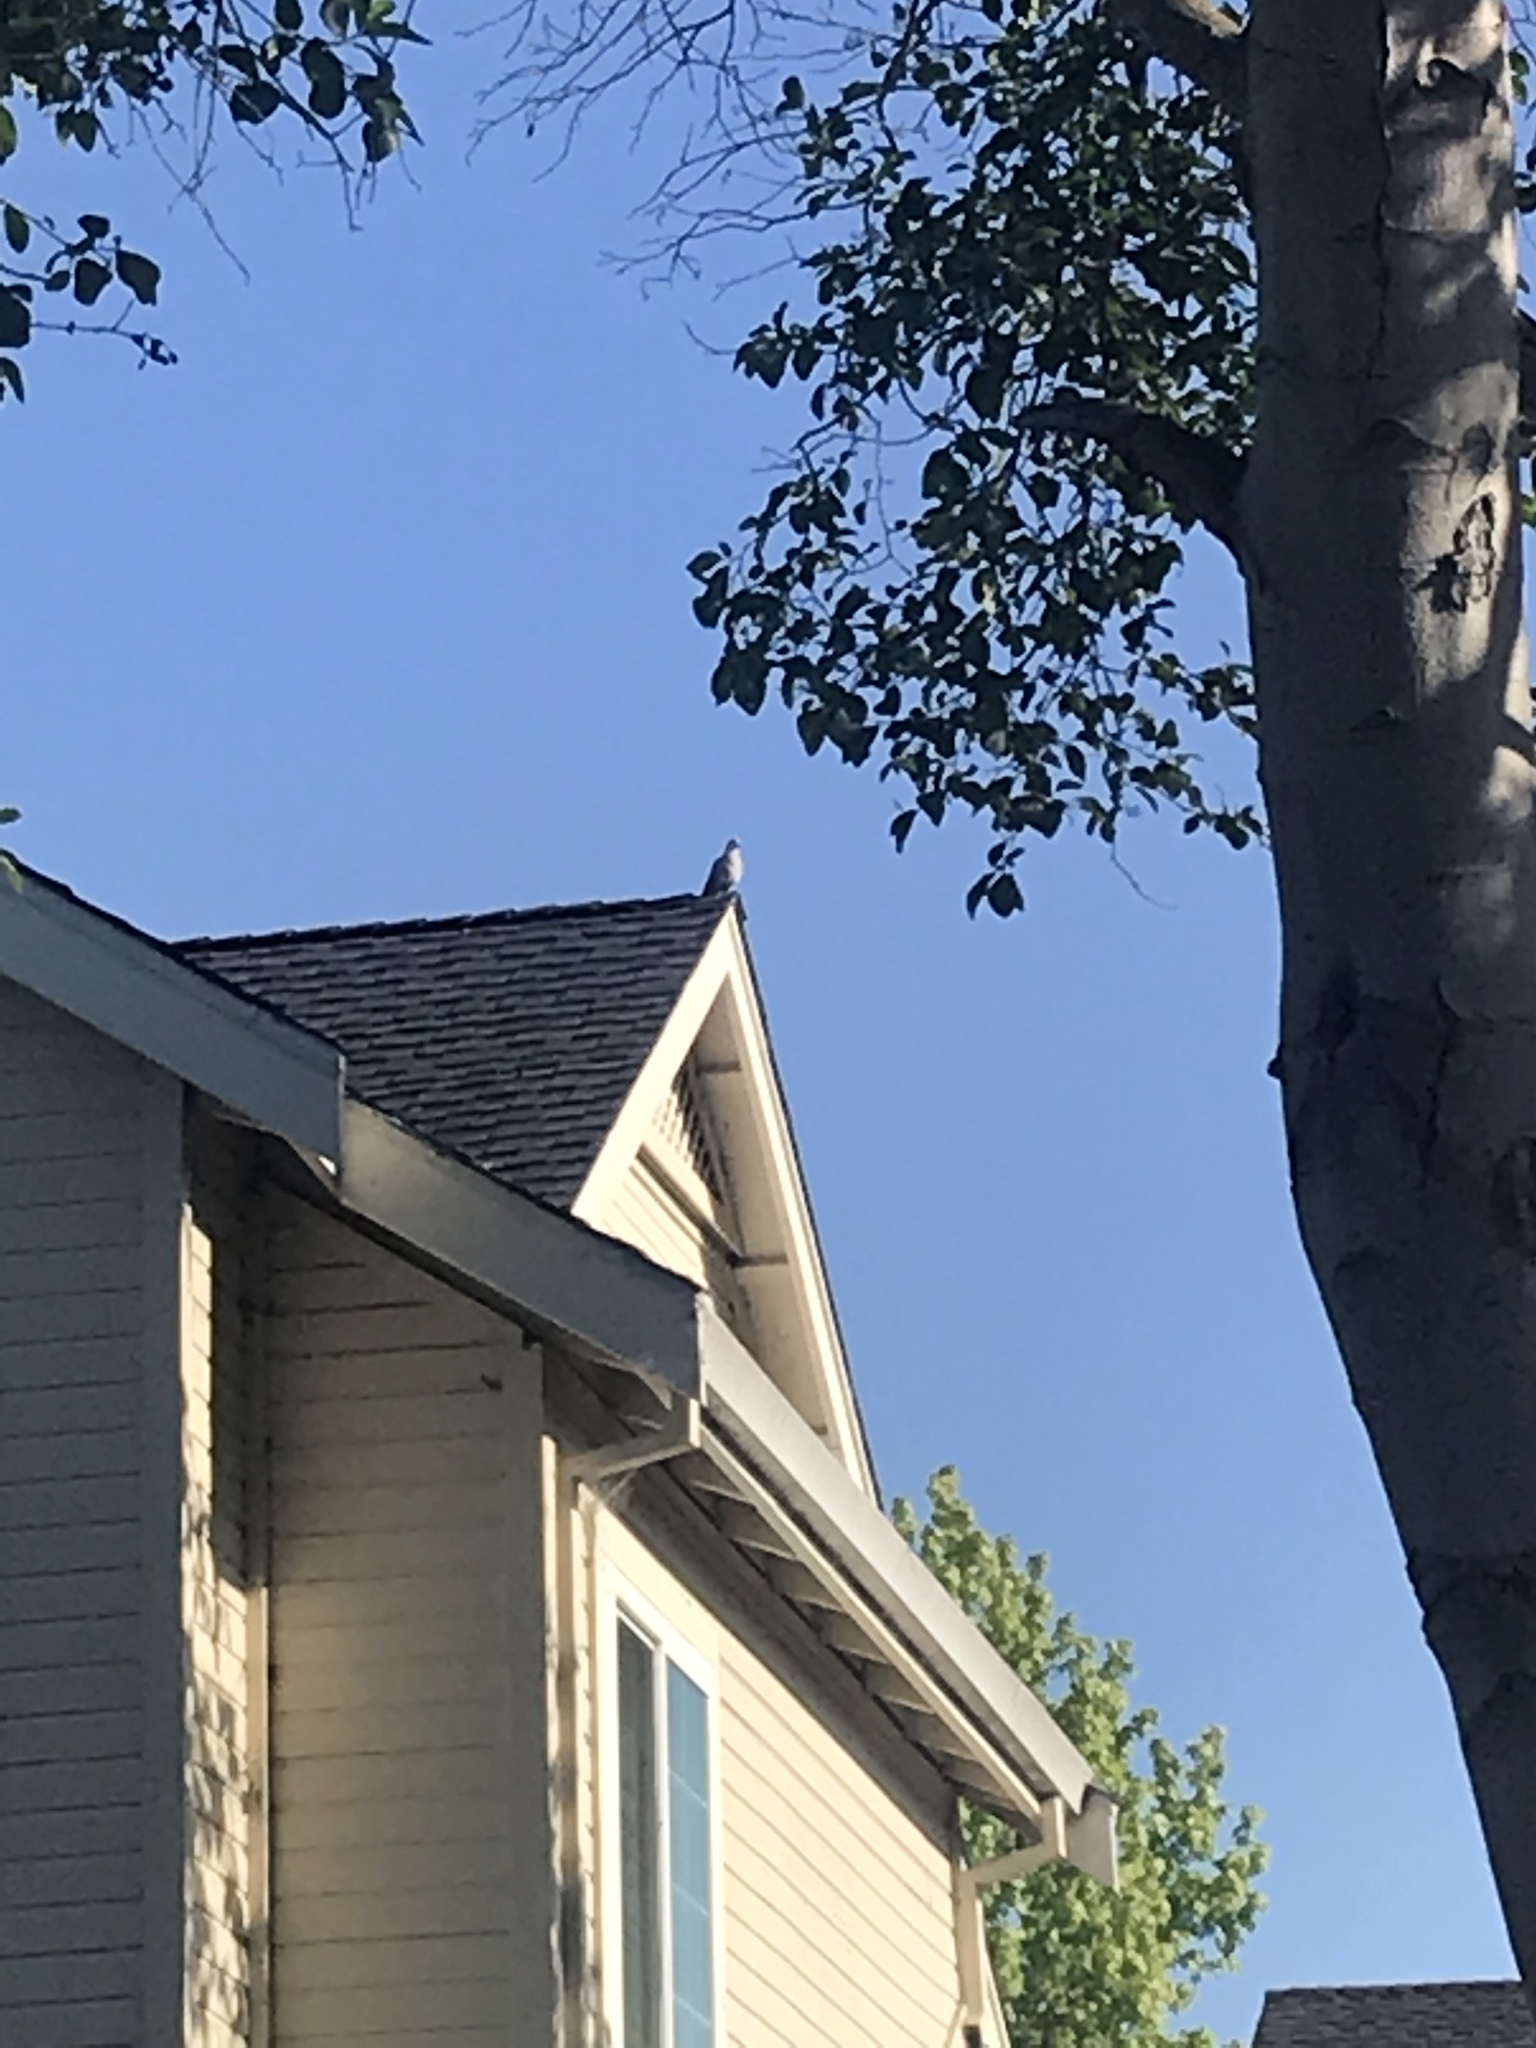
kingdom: Animalia
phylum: Chordata
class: Aves
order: Columbiformes
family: Columbidae
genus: Zenaida
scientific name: Zenaida macroura
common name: Mourning dove
